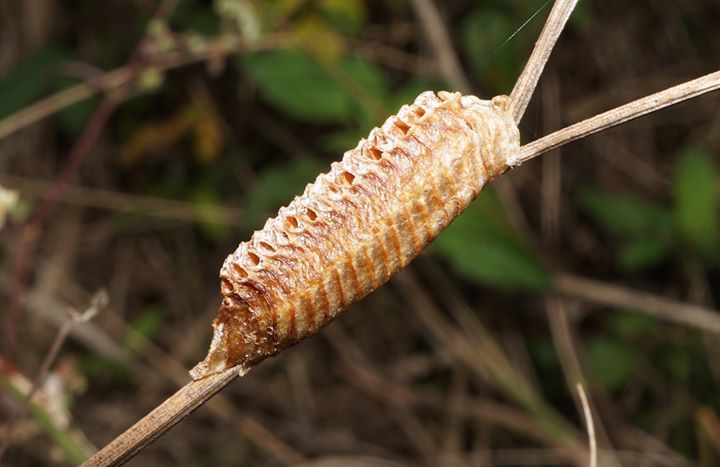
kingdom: Animalia
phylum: Arthropoda
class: Insecta
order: Mantodea
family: Mantidae
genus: Stagmomantis
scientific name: Stagmomantis carolina
